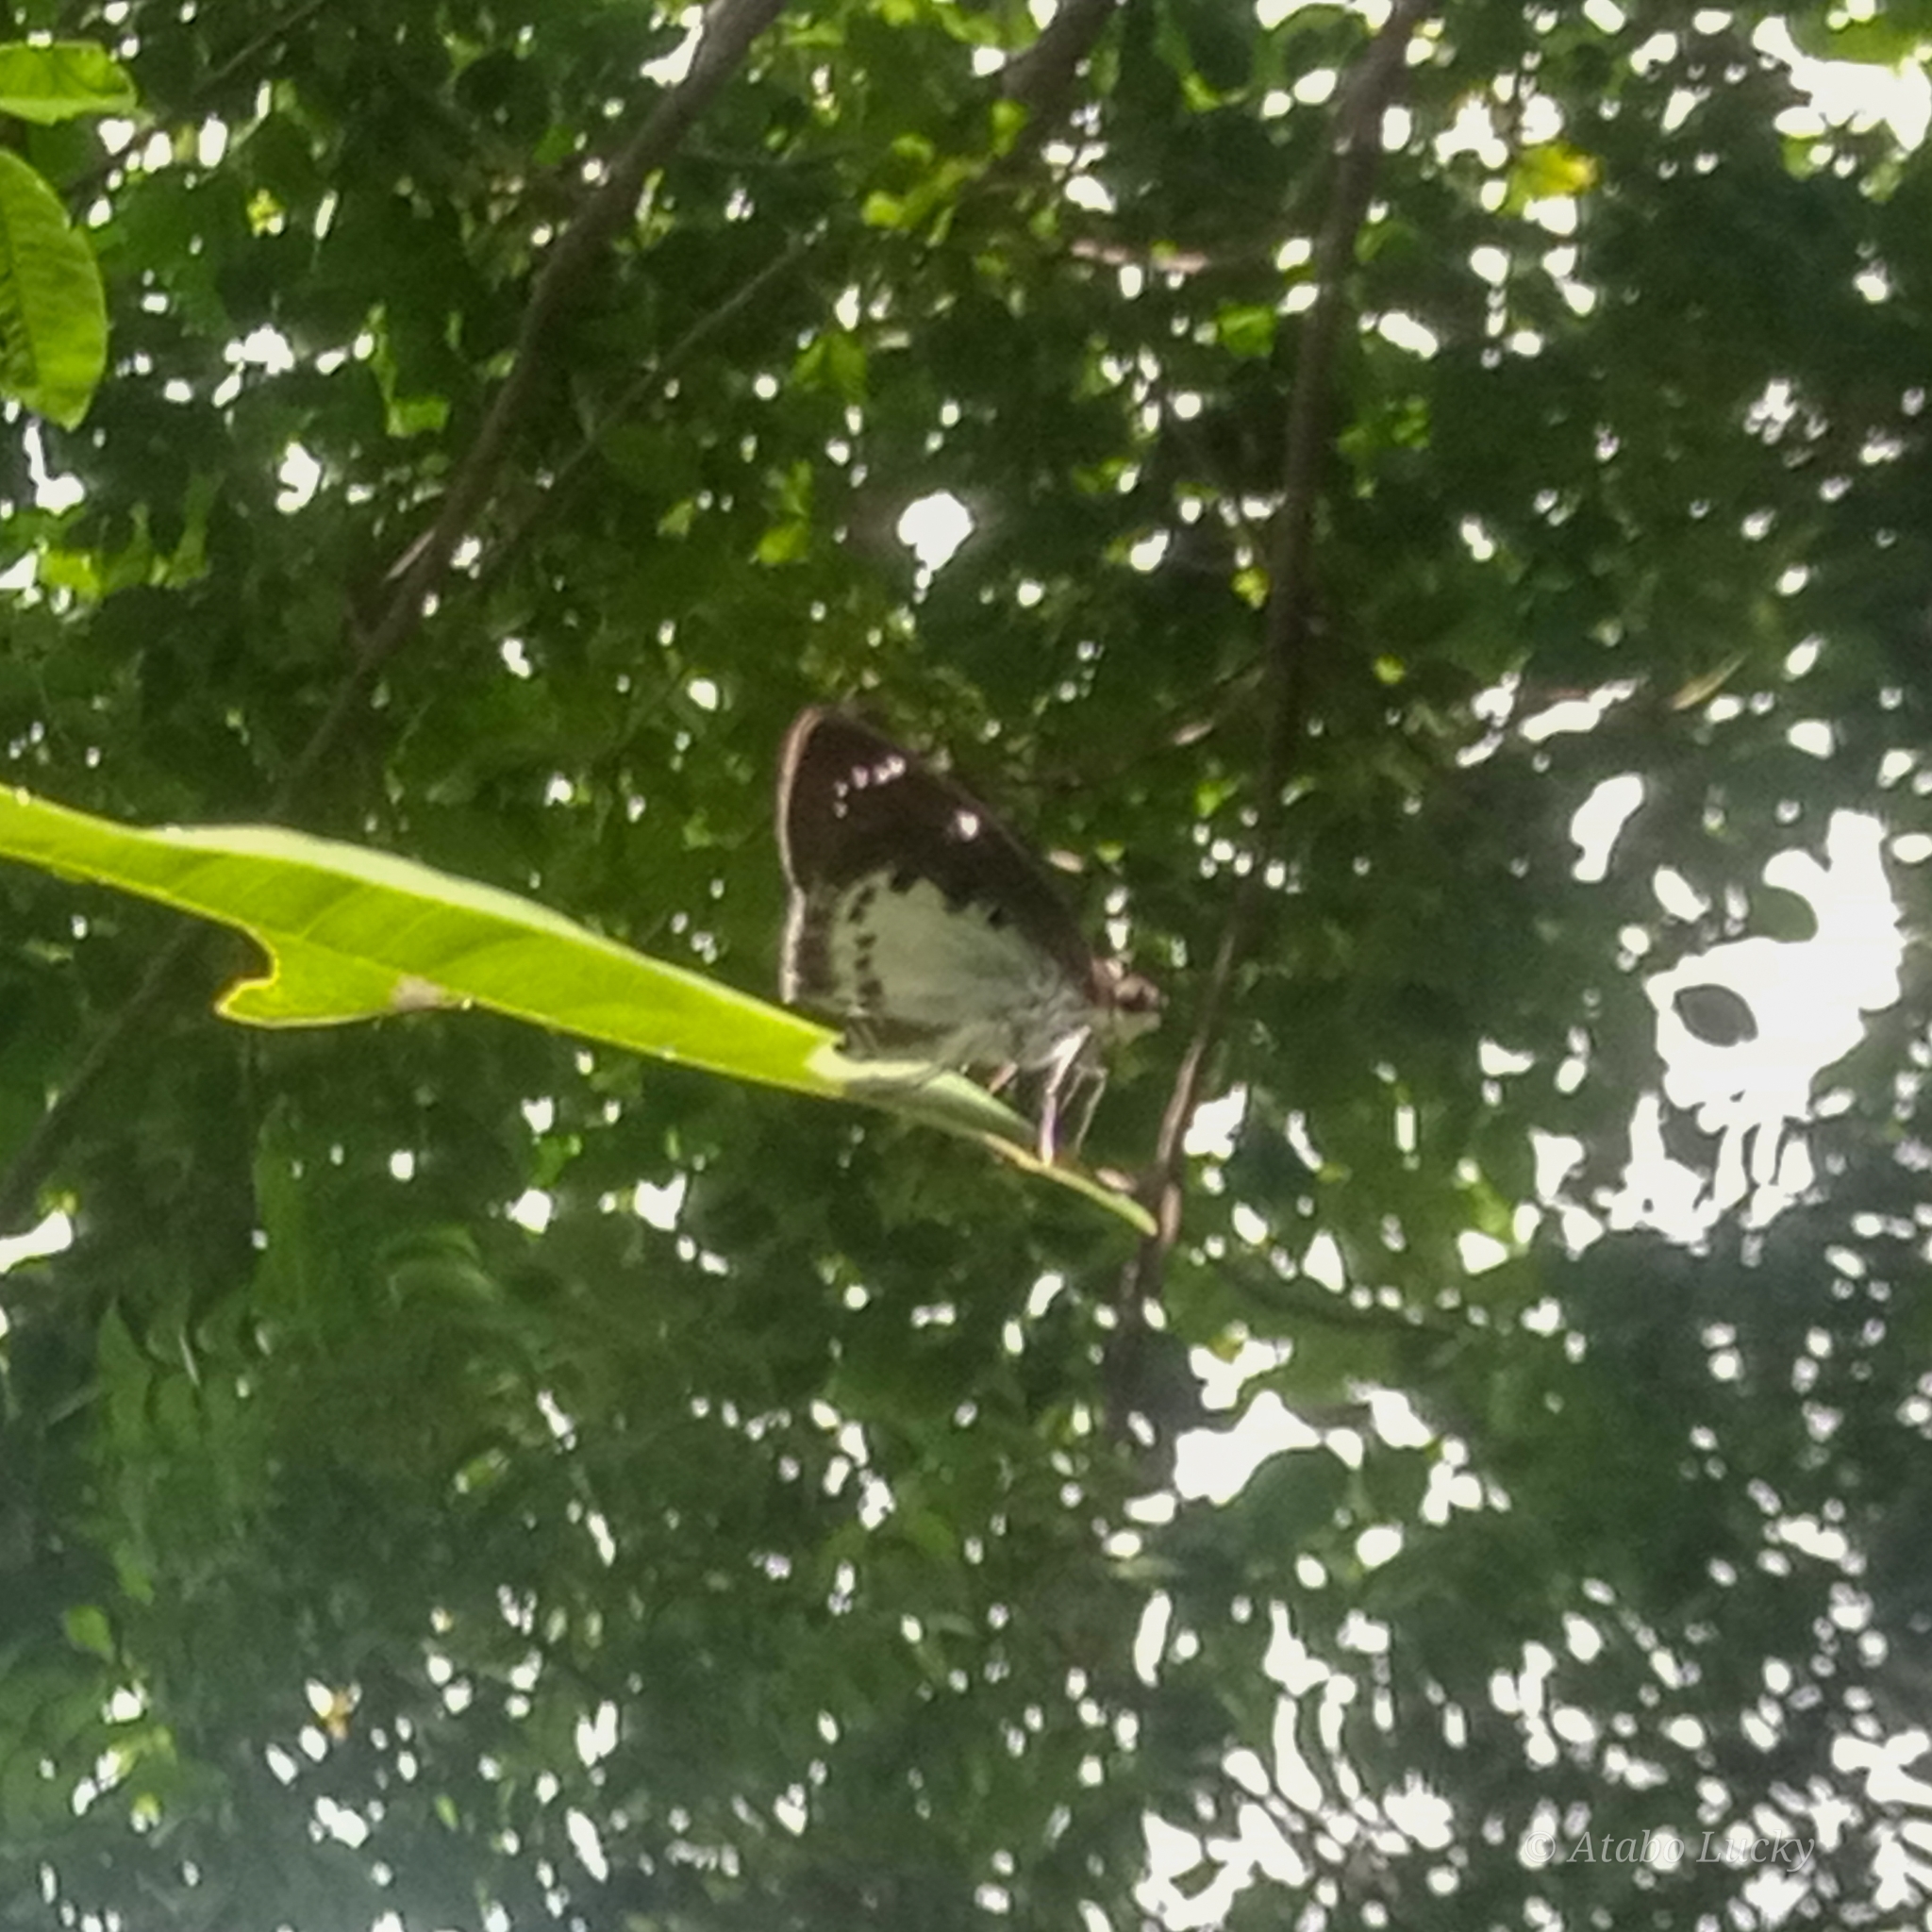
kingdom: Animalia
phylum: Arthropoda
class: Insecta
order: Lepidoptera
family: Hesperiidae
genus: Tagiades
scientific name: Tagiades flesus
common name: Clouded flat
